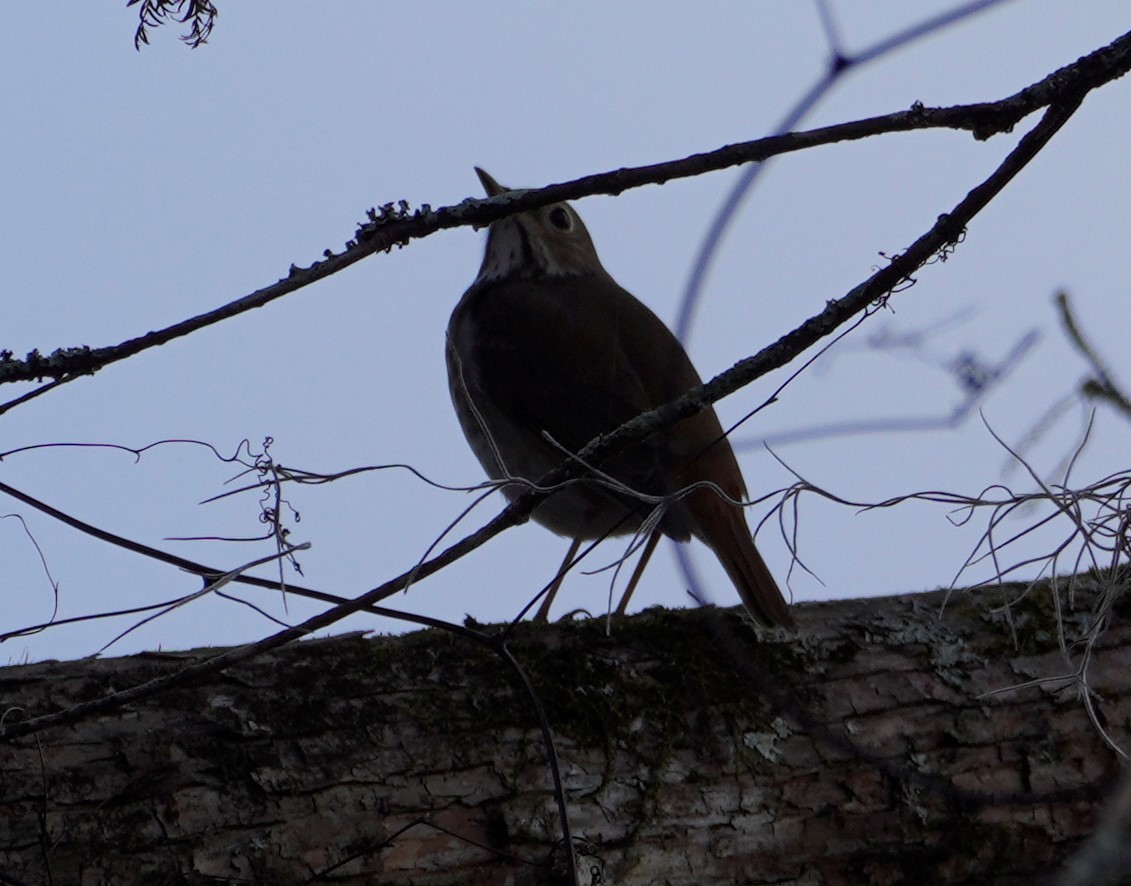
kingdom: Animalia
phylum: Chordata
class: Aves
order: Passeriformes
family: Turdidae
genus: Catharus
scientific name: Catharus guttatus
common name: Hermit thrush
